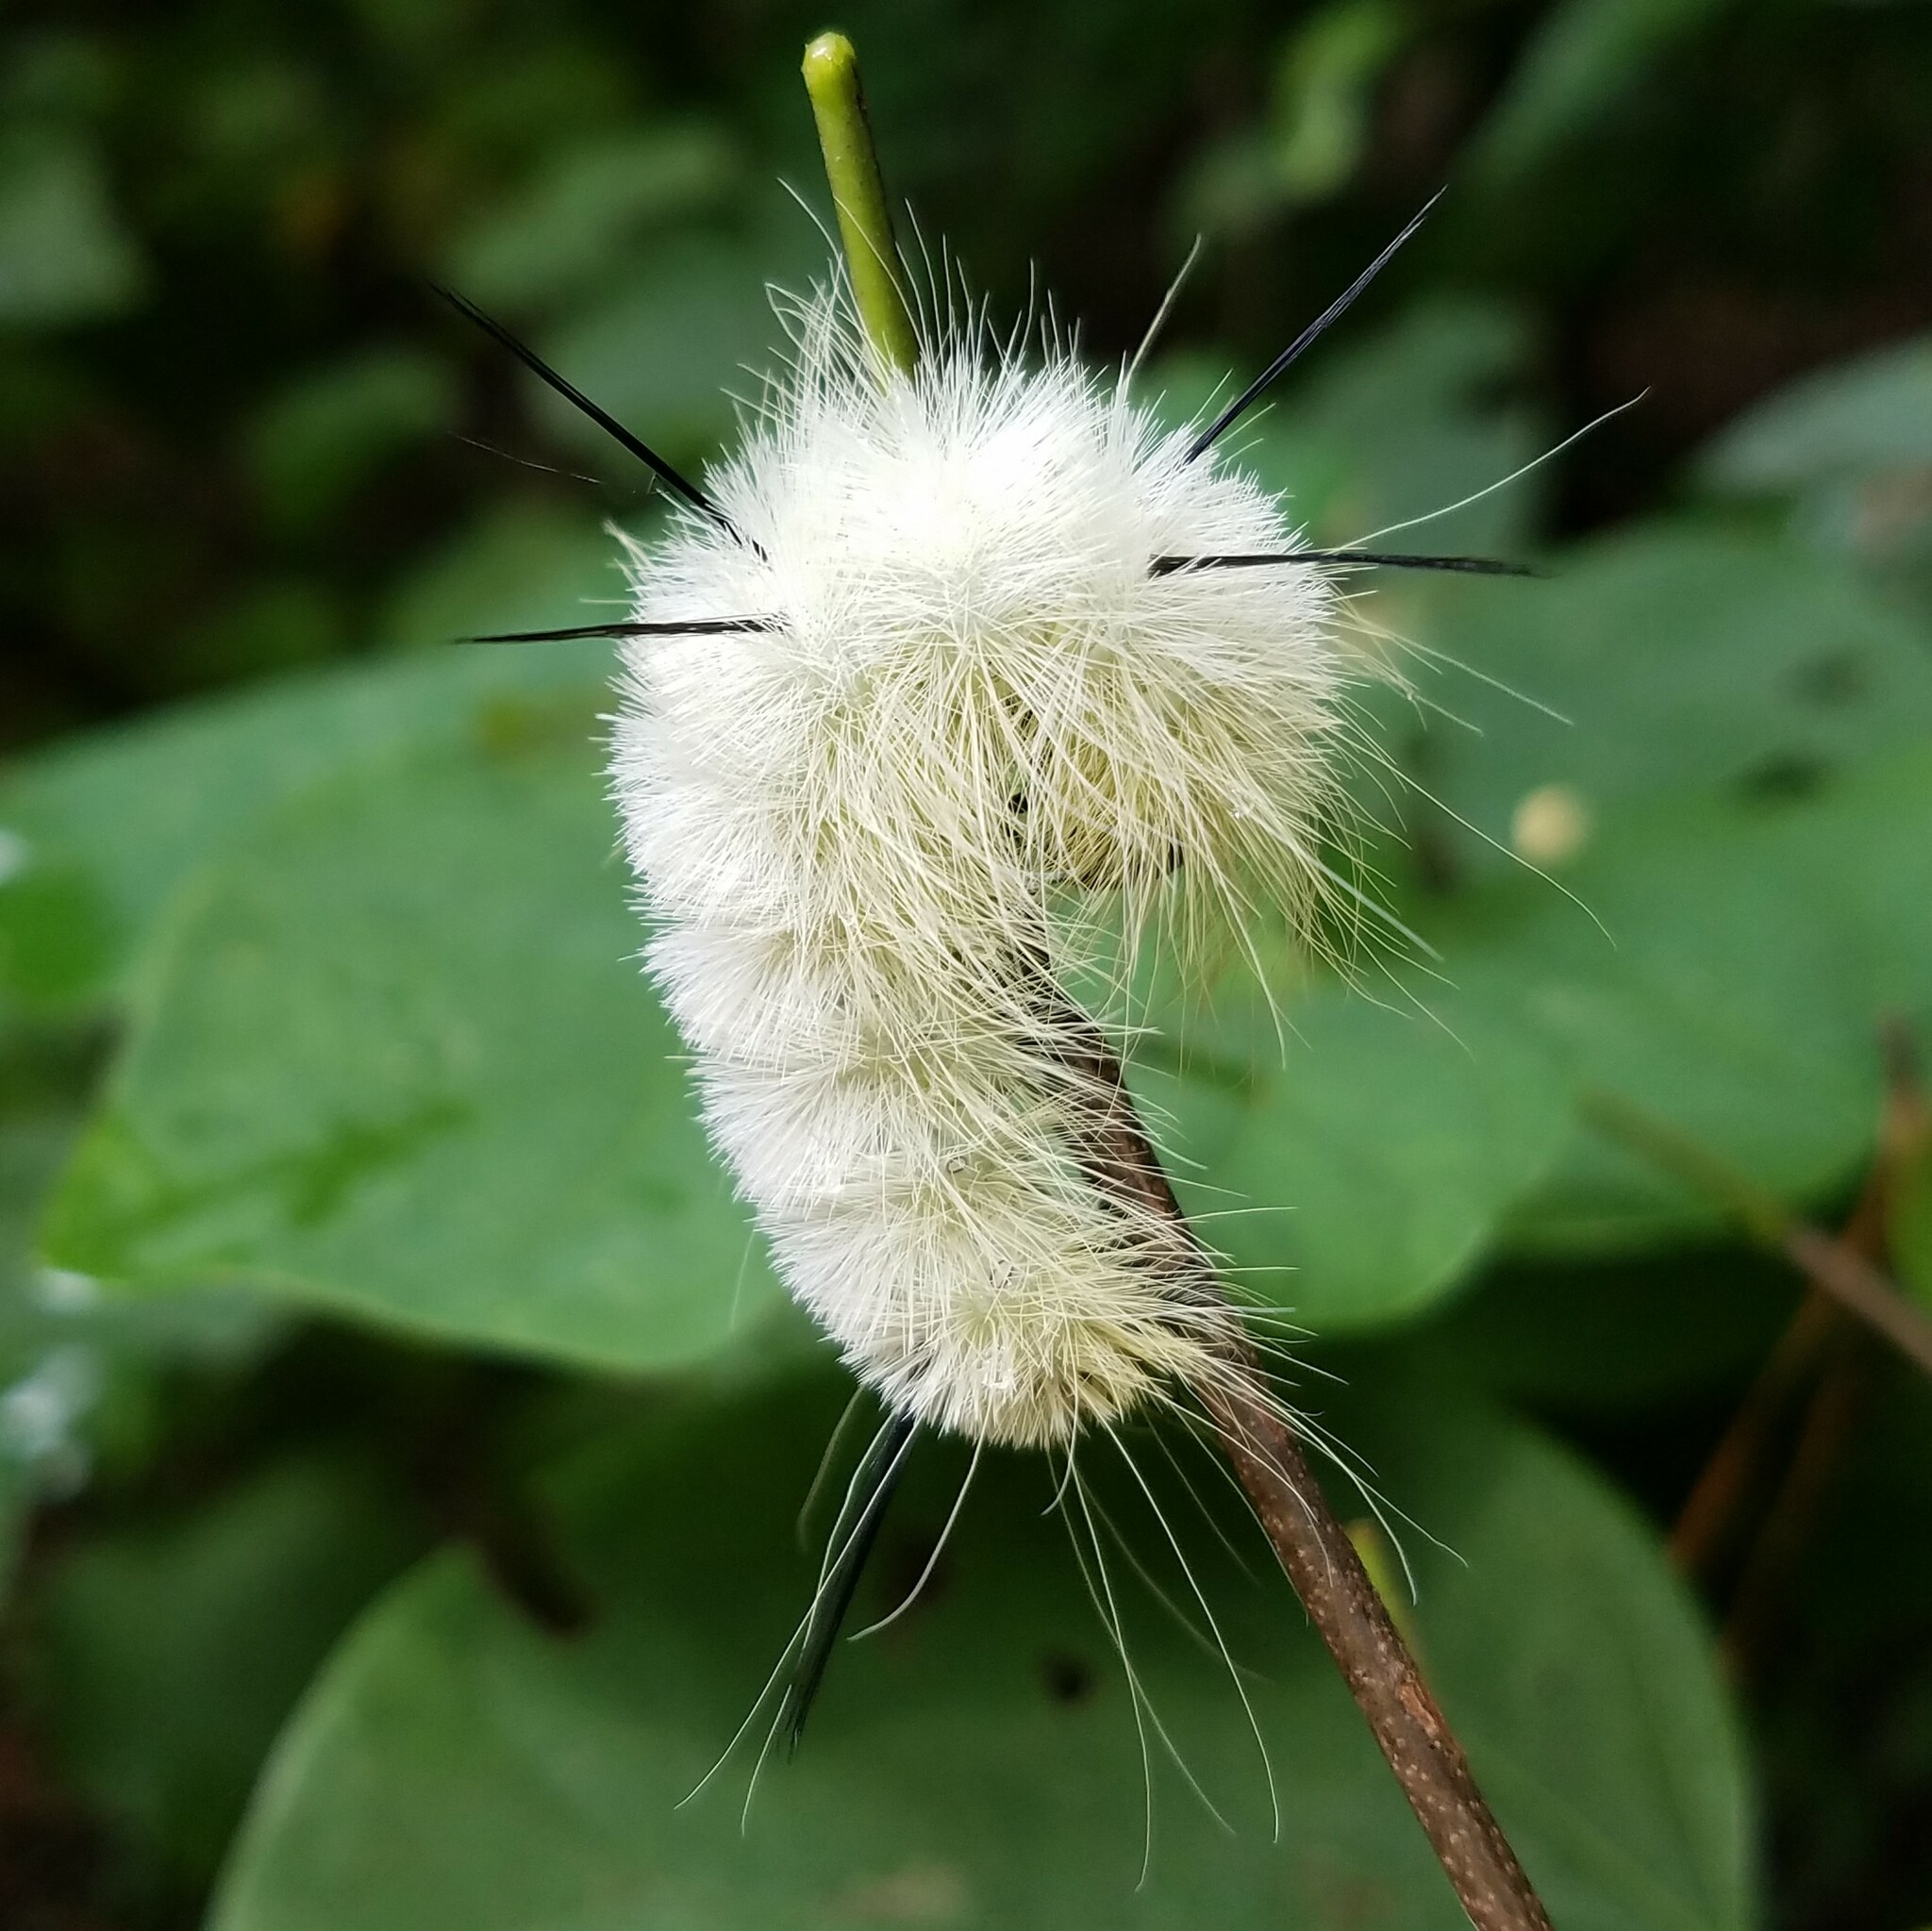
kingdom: Animalia
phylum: Arthropoda
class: Insecta
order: Lepidoptera
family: Noctuidae
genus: Acronicta
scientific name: Acronicta americana
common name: American dagger
